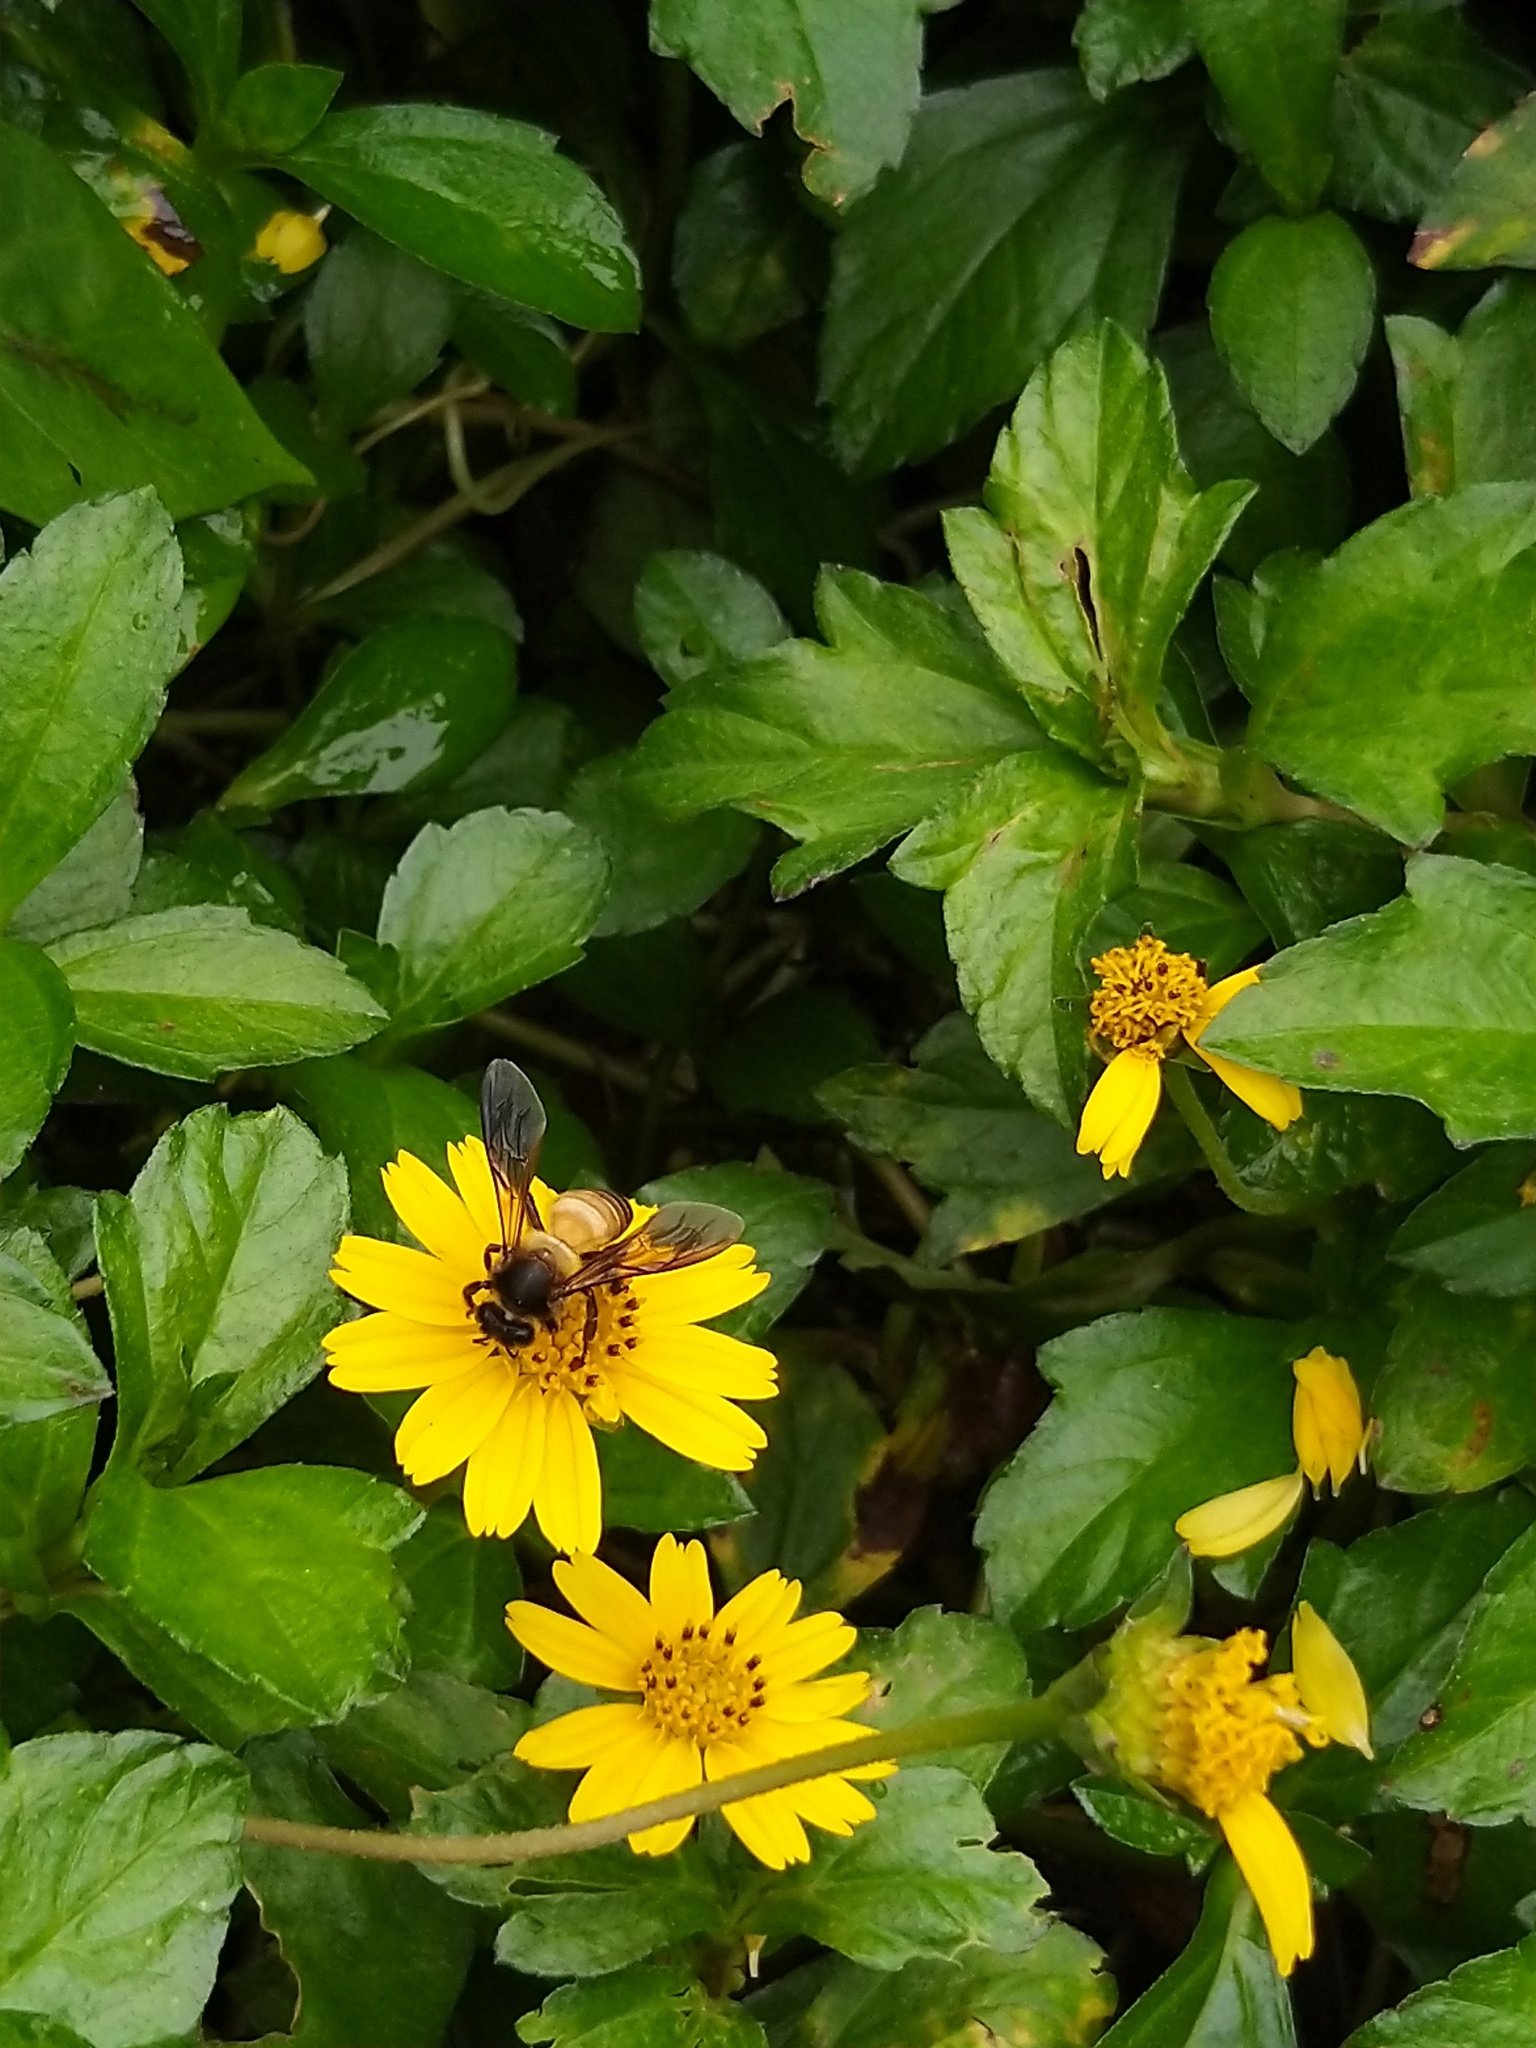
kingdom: Animalia
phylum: Arthropoda
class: Insecta
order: Hymenoptera
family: Apidae
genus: Apis
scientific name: Apis dorsata
